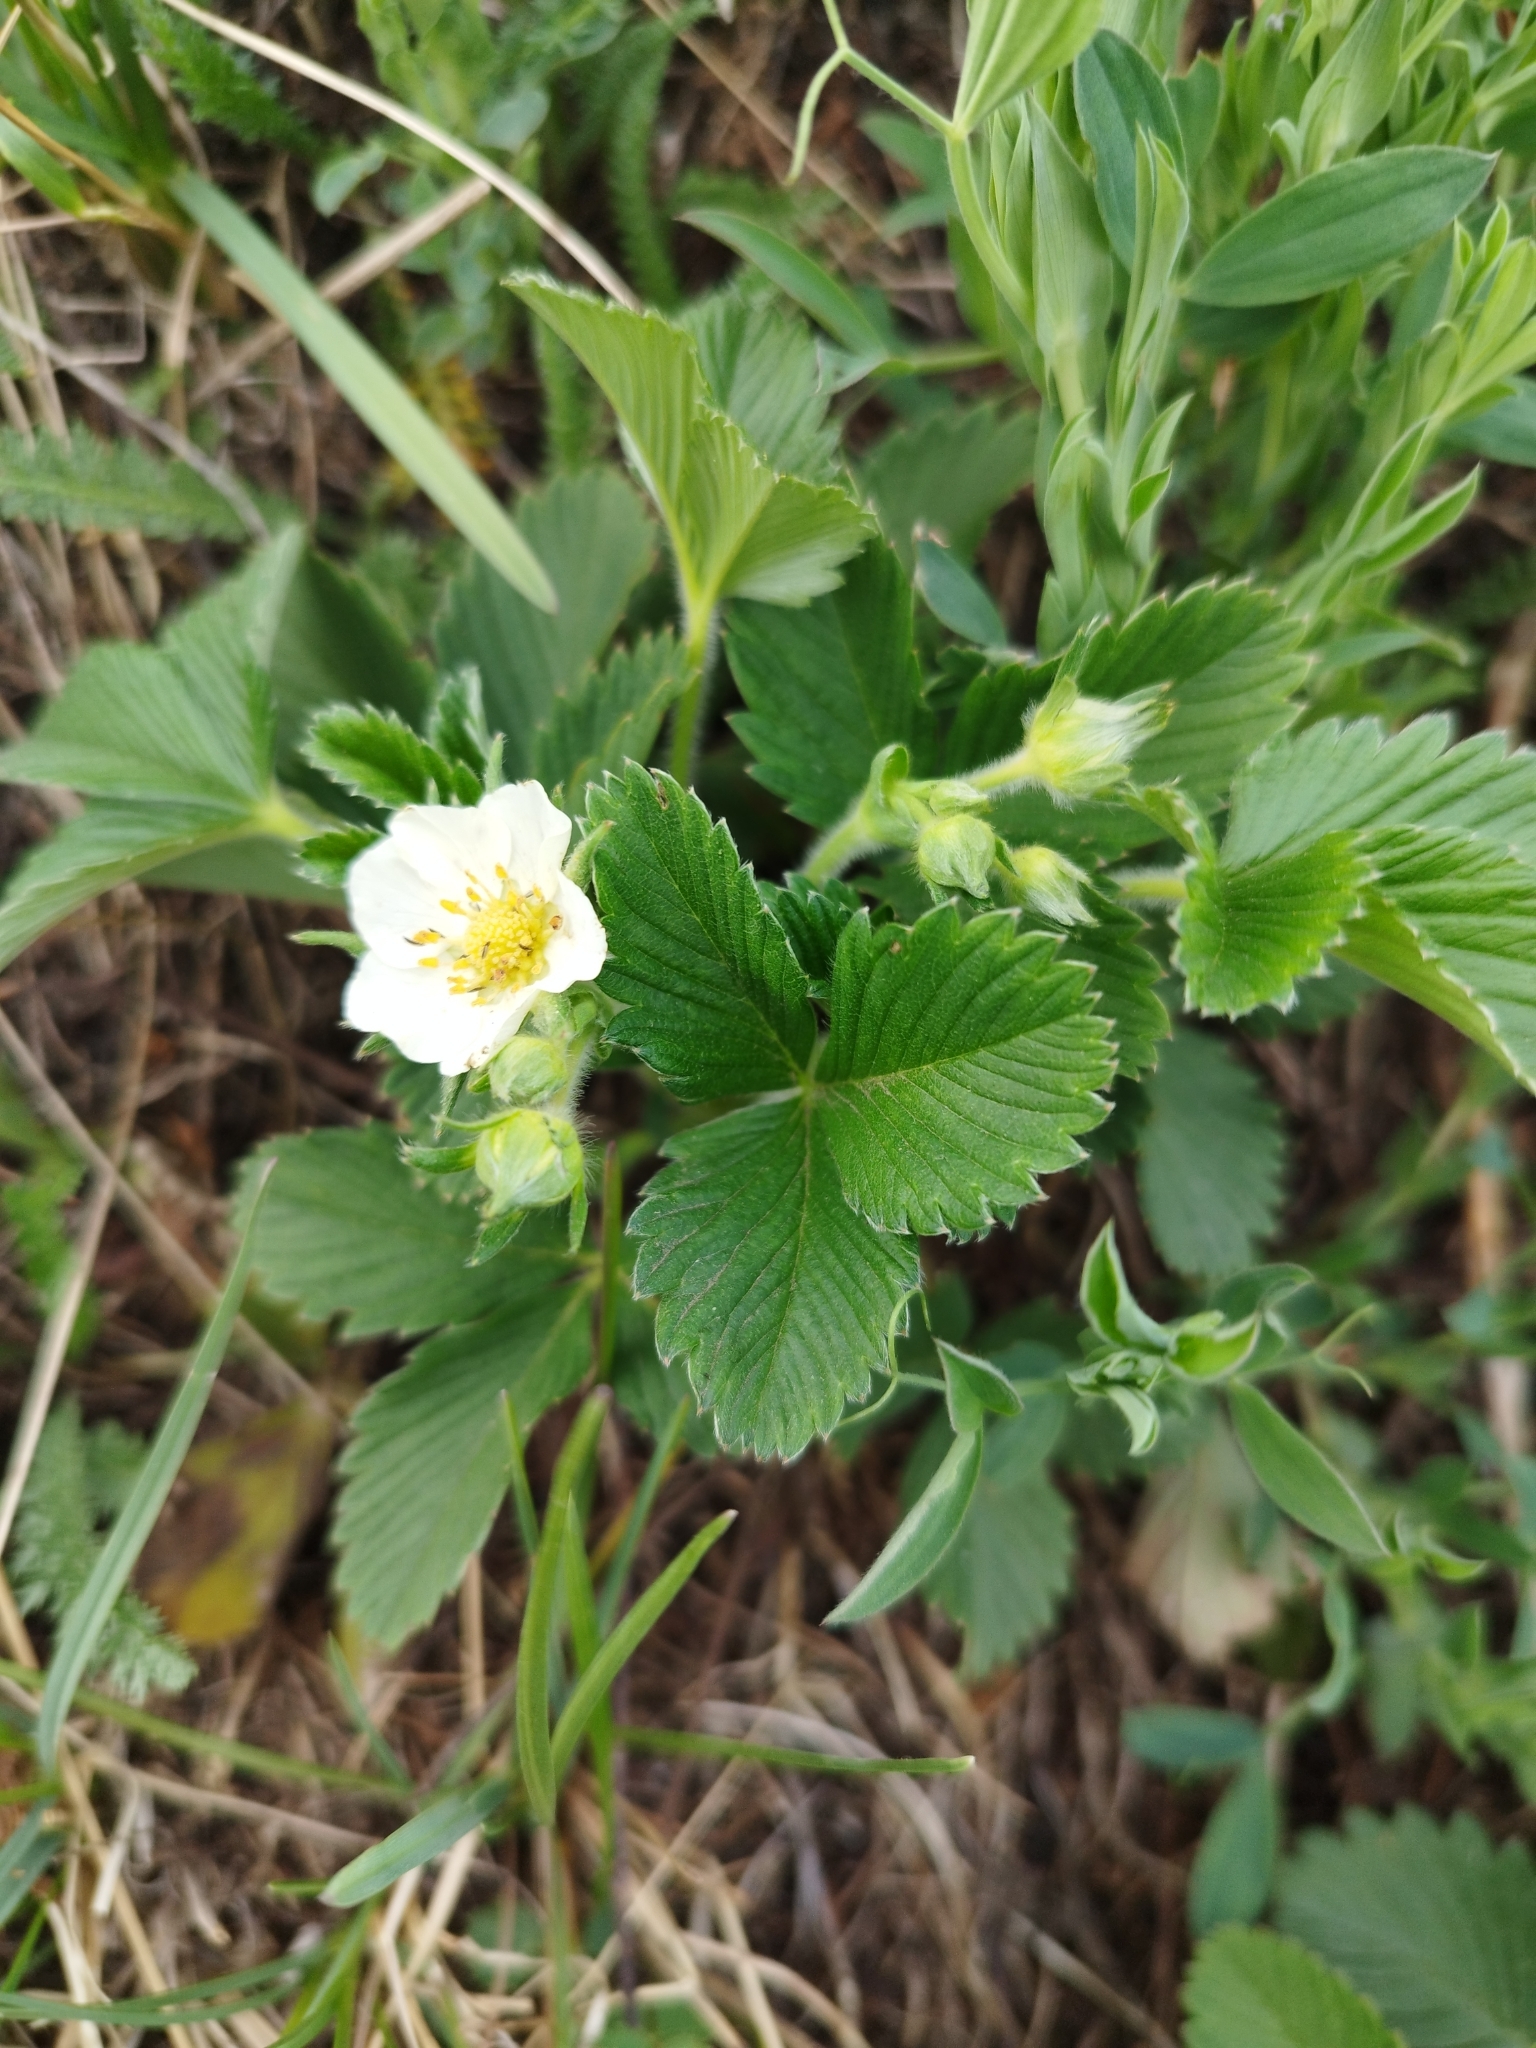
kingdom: Plantae
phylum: Tracheophyta
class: Magnoliopsida
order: Rosales
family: Rosaceae
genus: Fragaria
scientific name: Fragaria viridis
